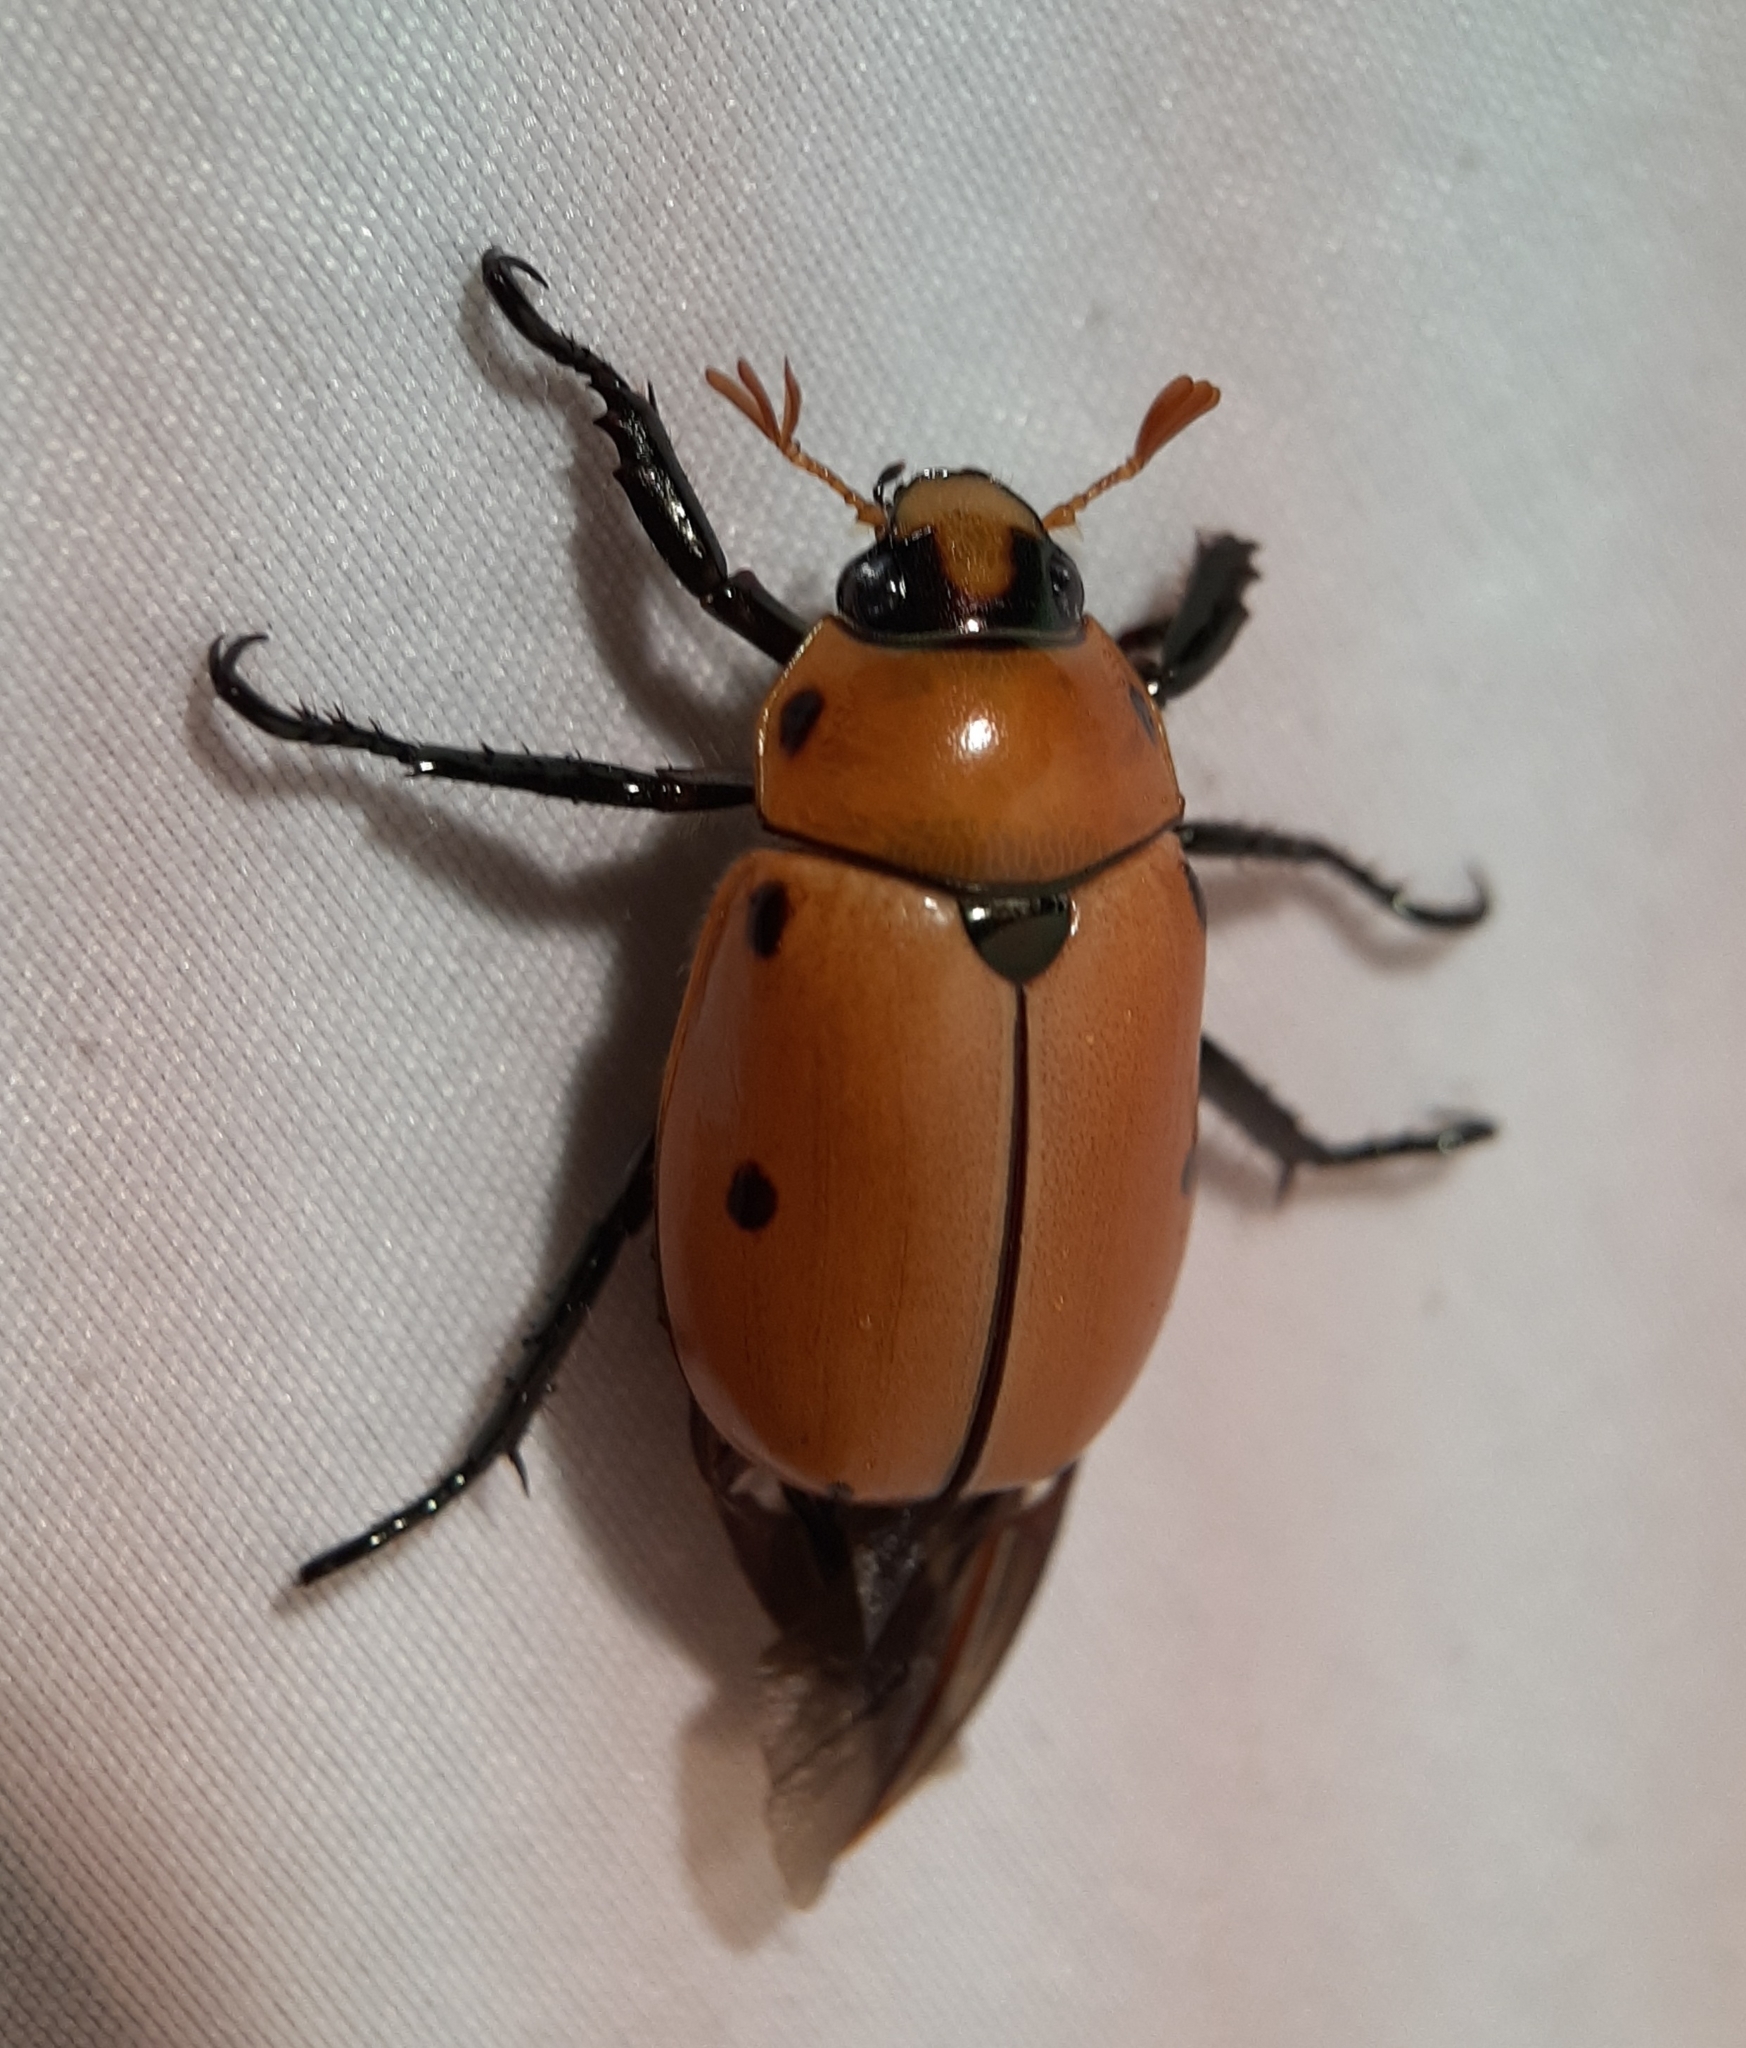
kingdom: Animalia
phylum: Arthropoda
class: Insecta
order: Coleoptera
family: Scarabaeidae
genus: Pelidnota
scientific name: Pelidnota punctata
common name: Grapevine beetle
